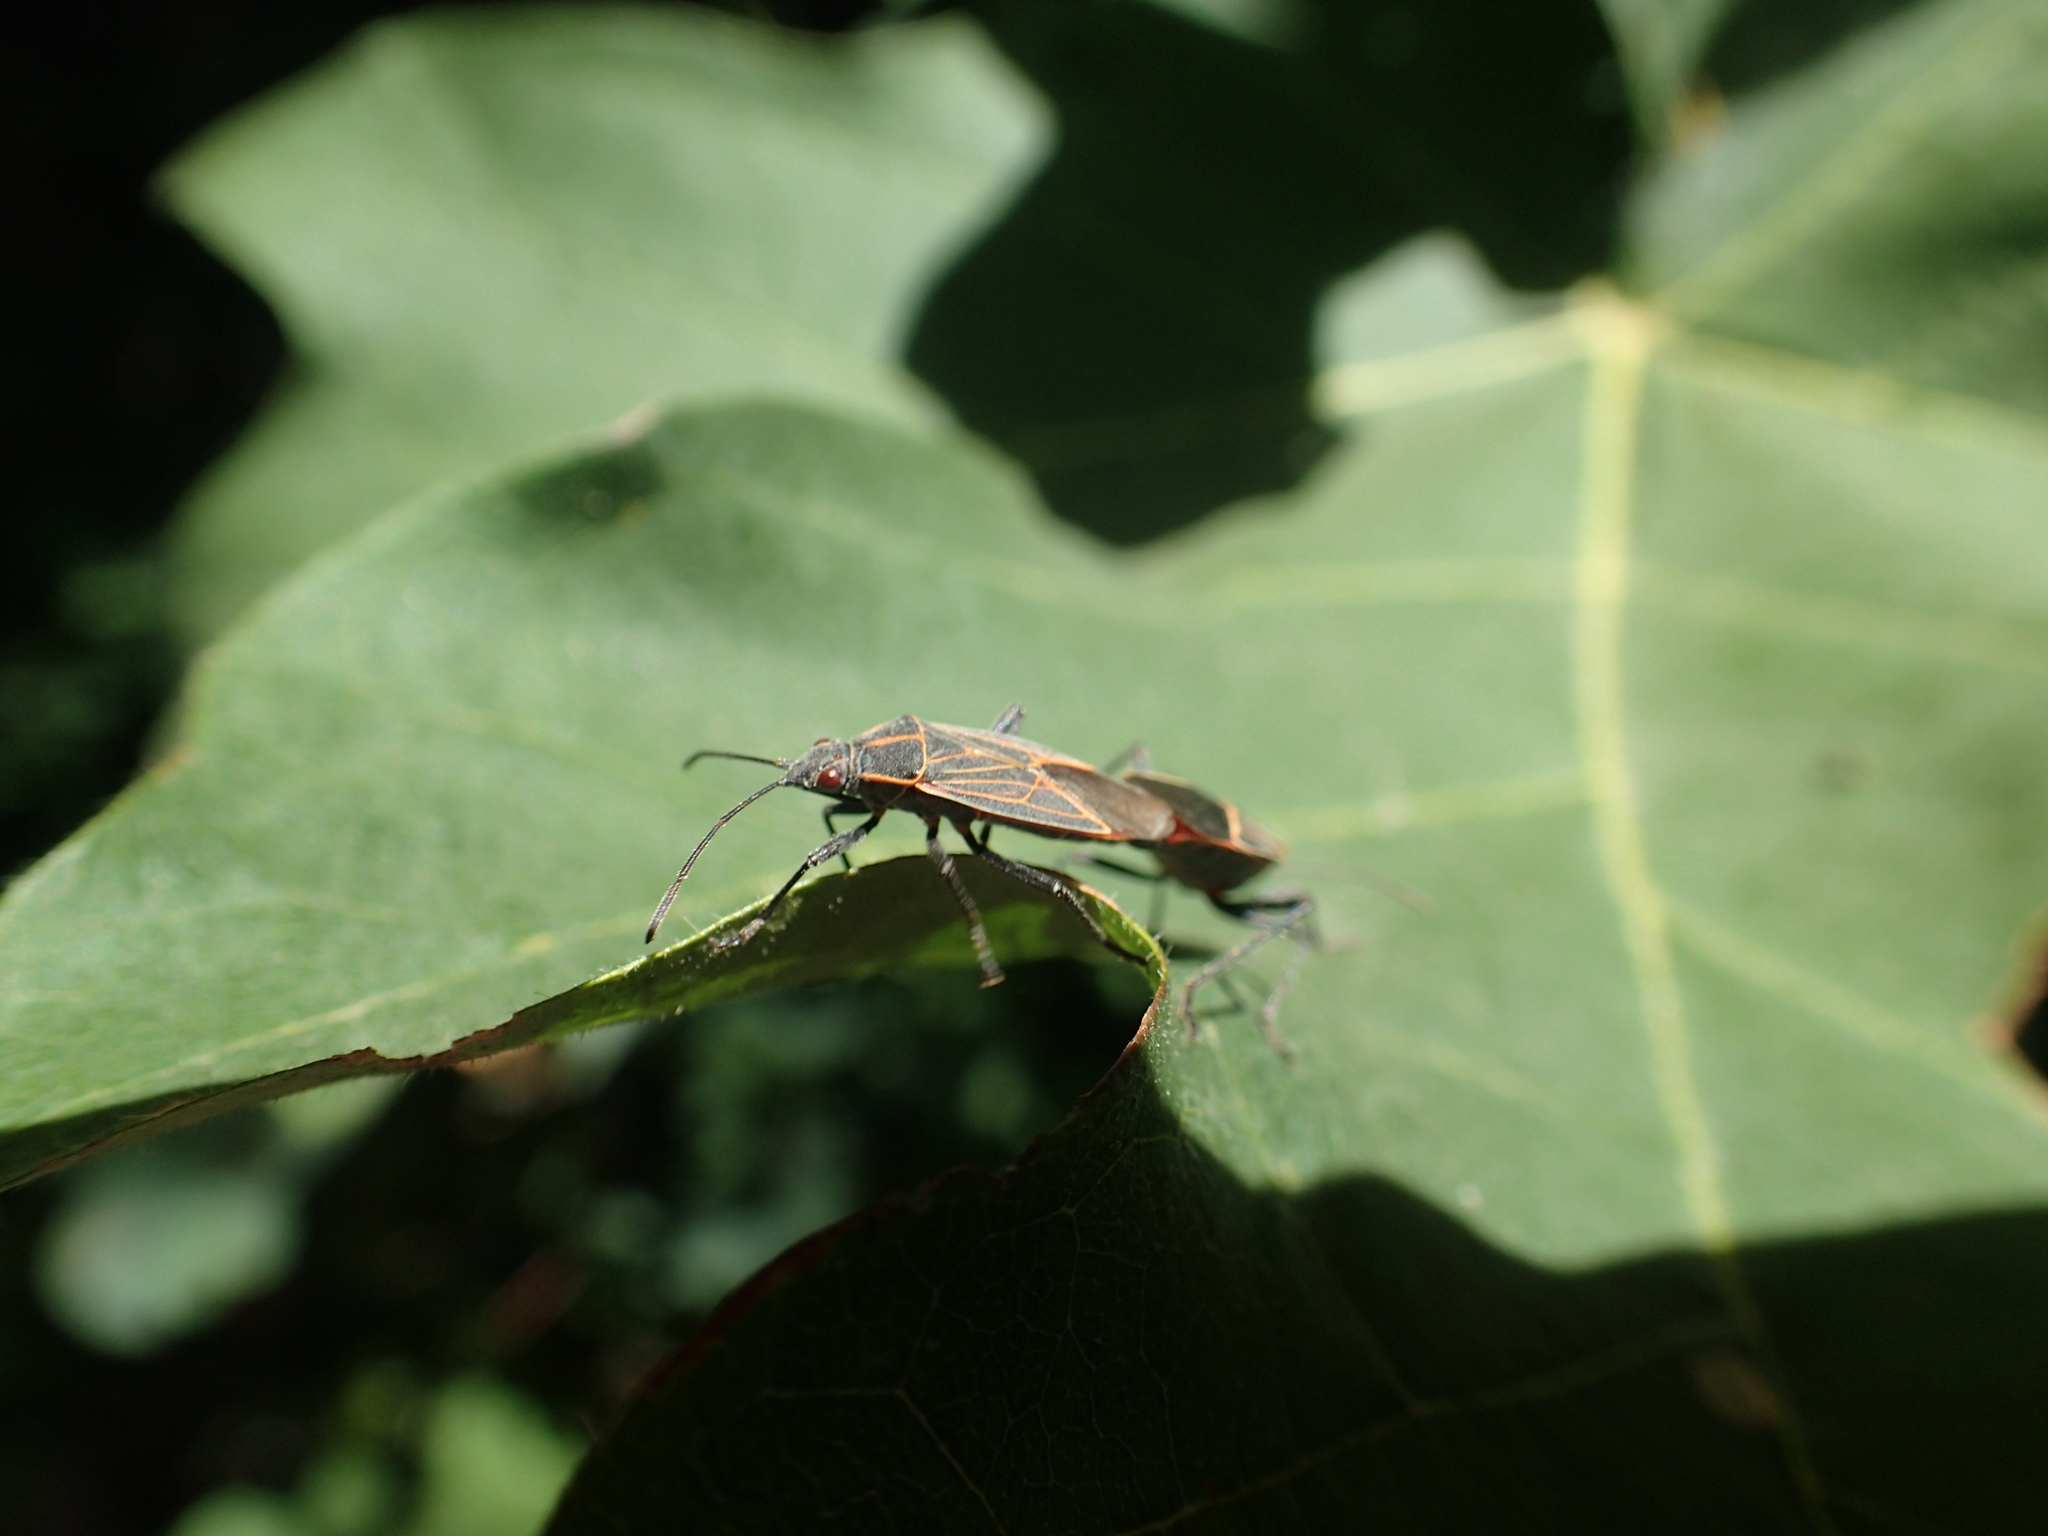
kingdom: Animalia
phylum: Arthropoda
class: Insecta
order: Hemiptera
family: Rhopalidae
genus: Boisea
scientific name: Boisea rubrolineata
